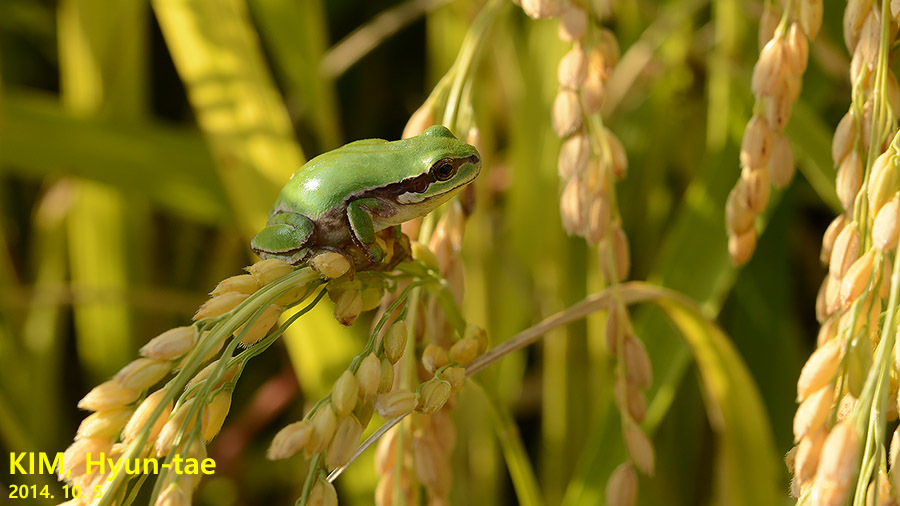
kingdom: Animalia
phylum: Chordata
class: Amphibia
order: Anura
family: Hylidae
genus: Dryophytes
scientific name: Dryophytes immaculatus
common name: North china treefrog
